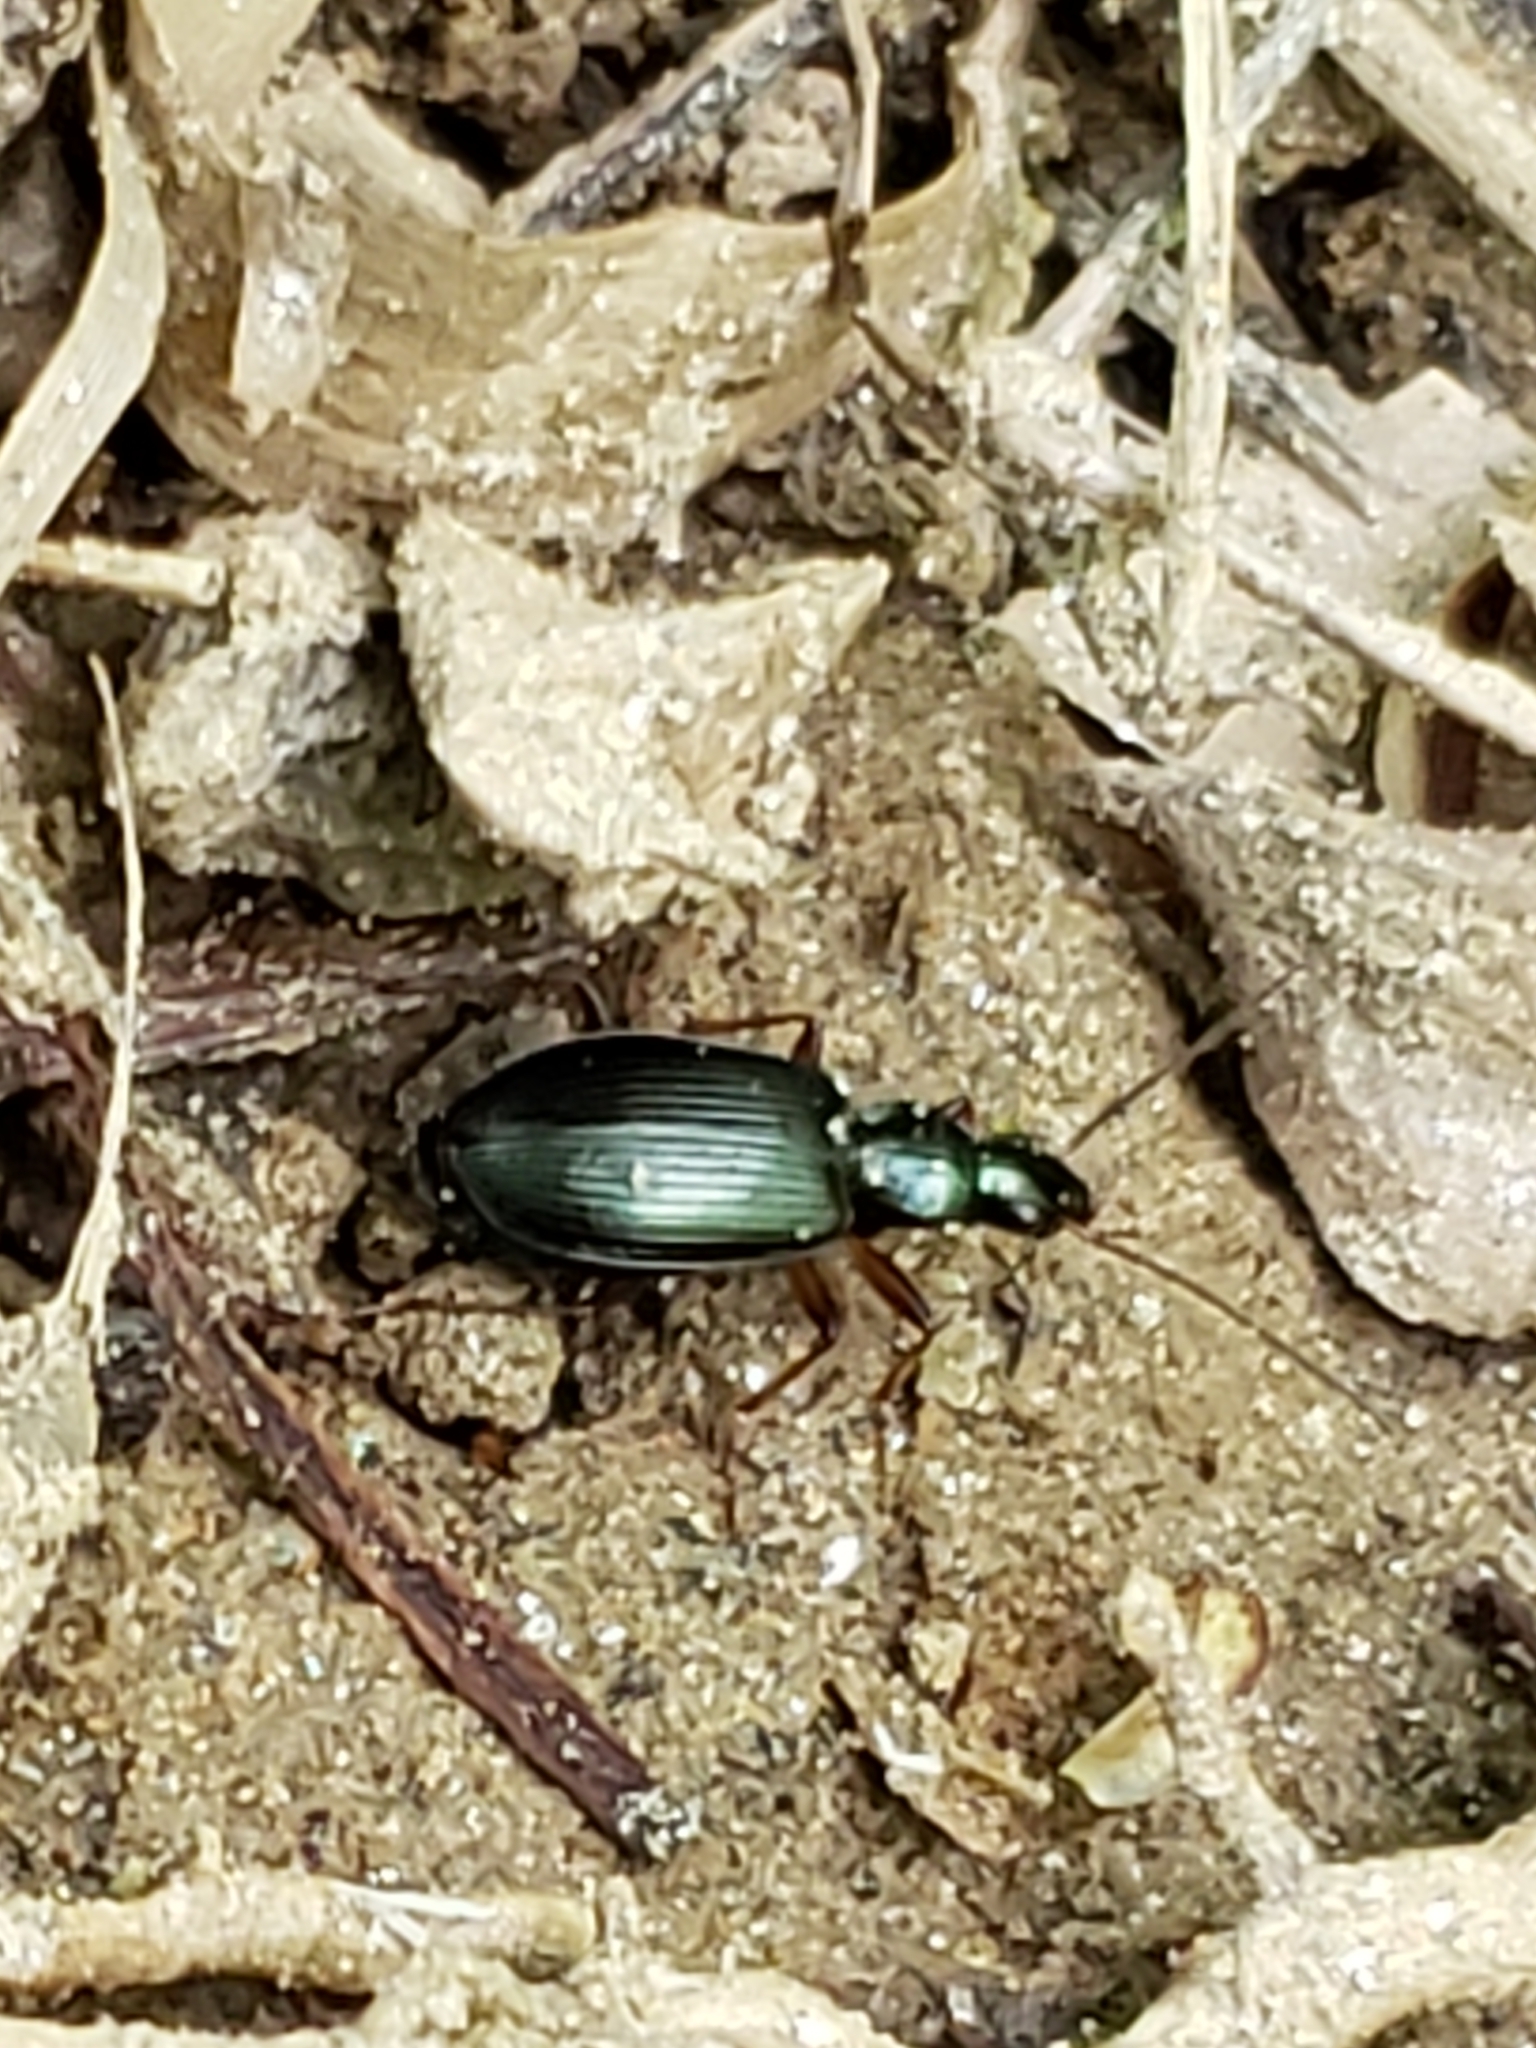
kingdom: Animalia
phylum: Arthropoda
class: Insecta
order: Coleoptera
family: Carabidae
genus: Agonum
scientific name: Agonum extensicolle
